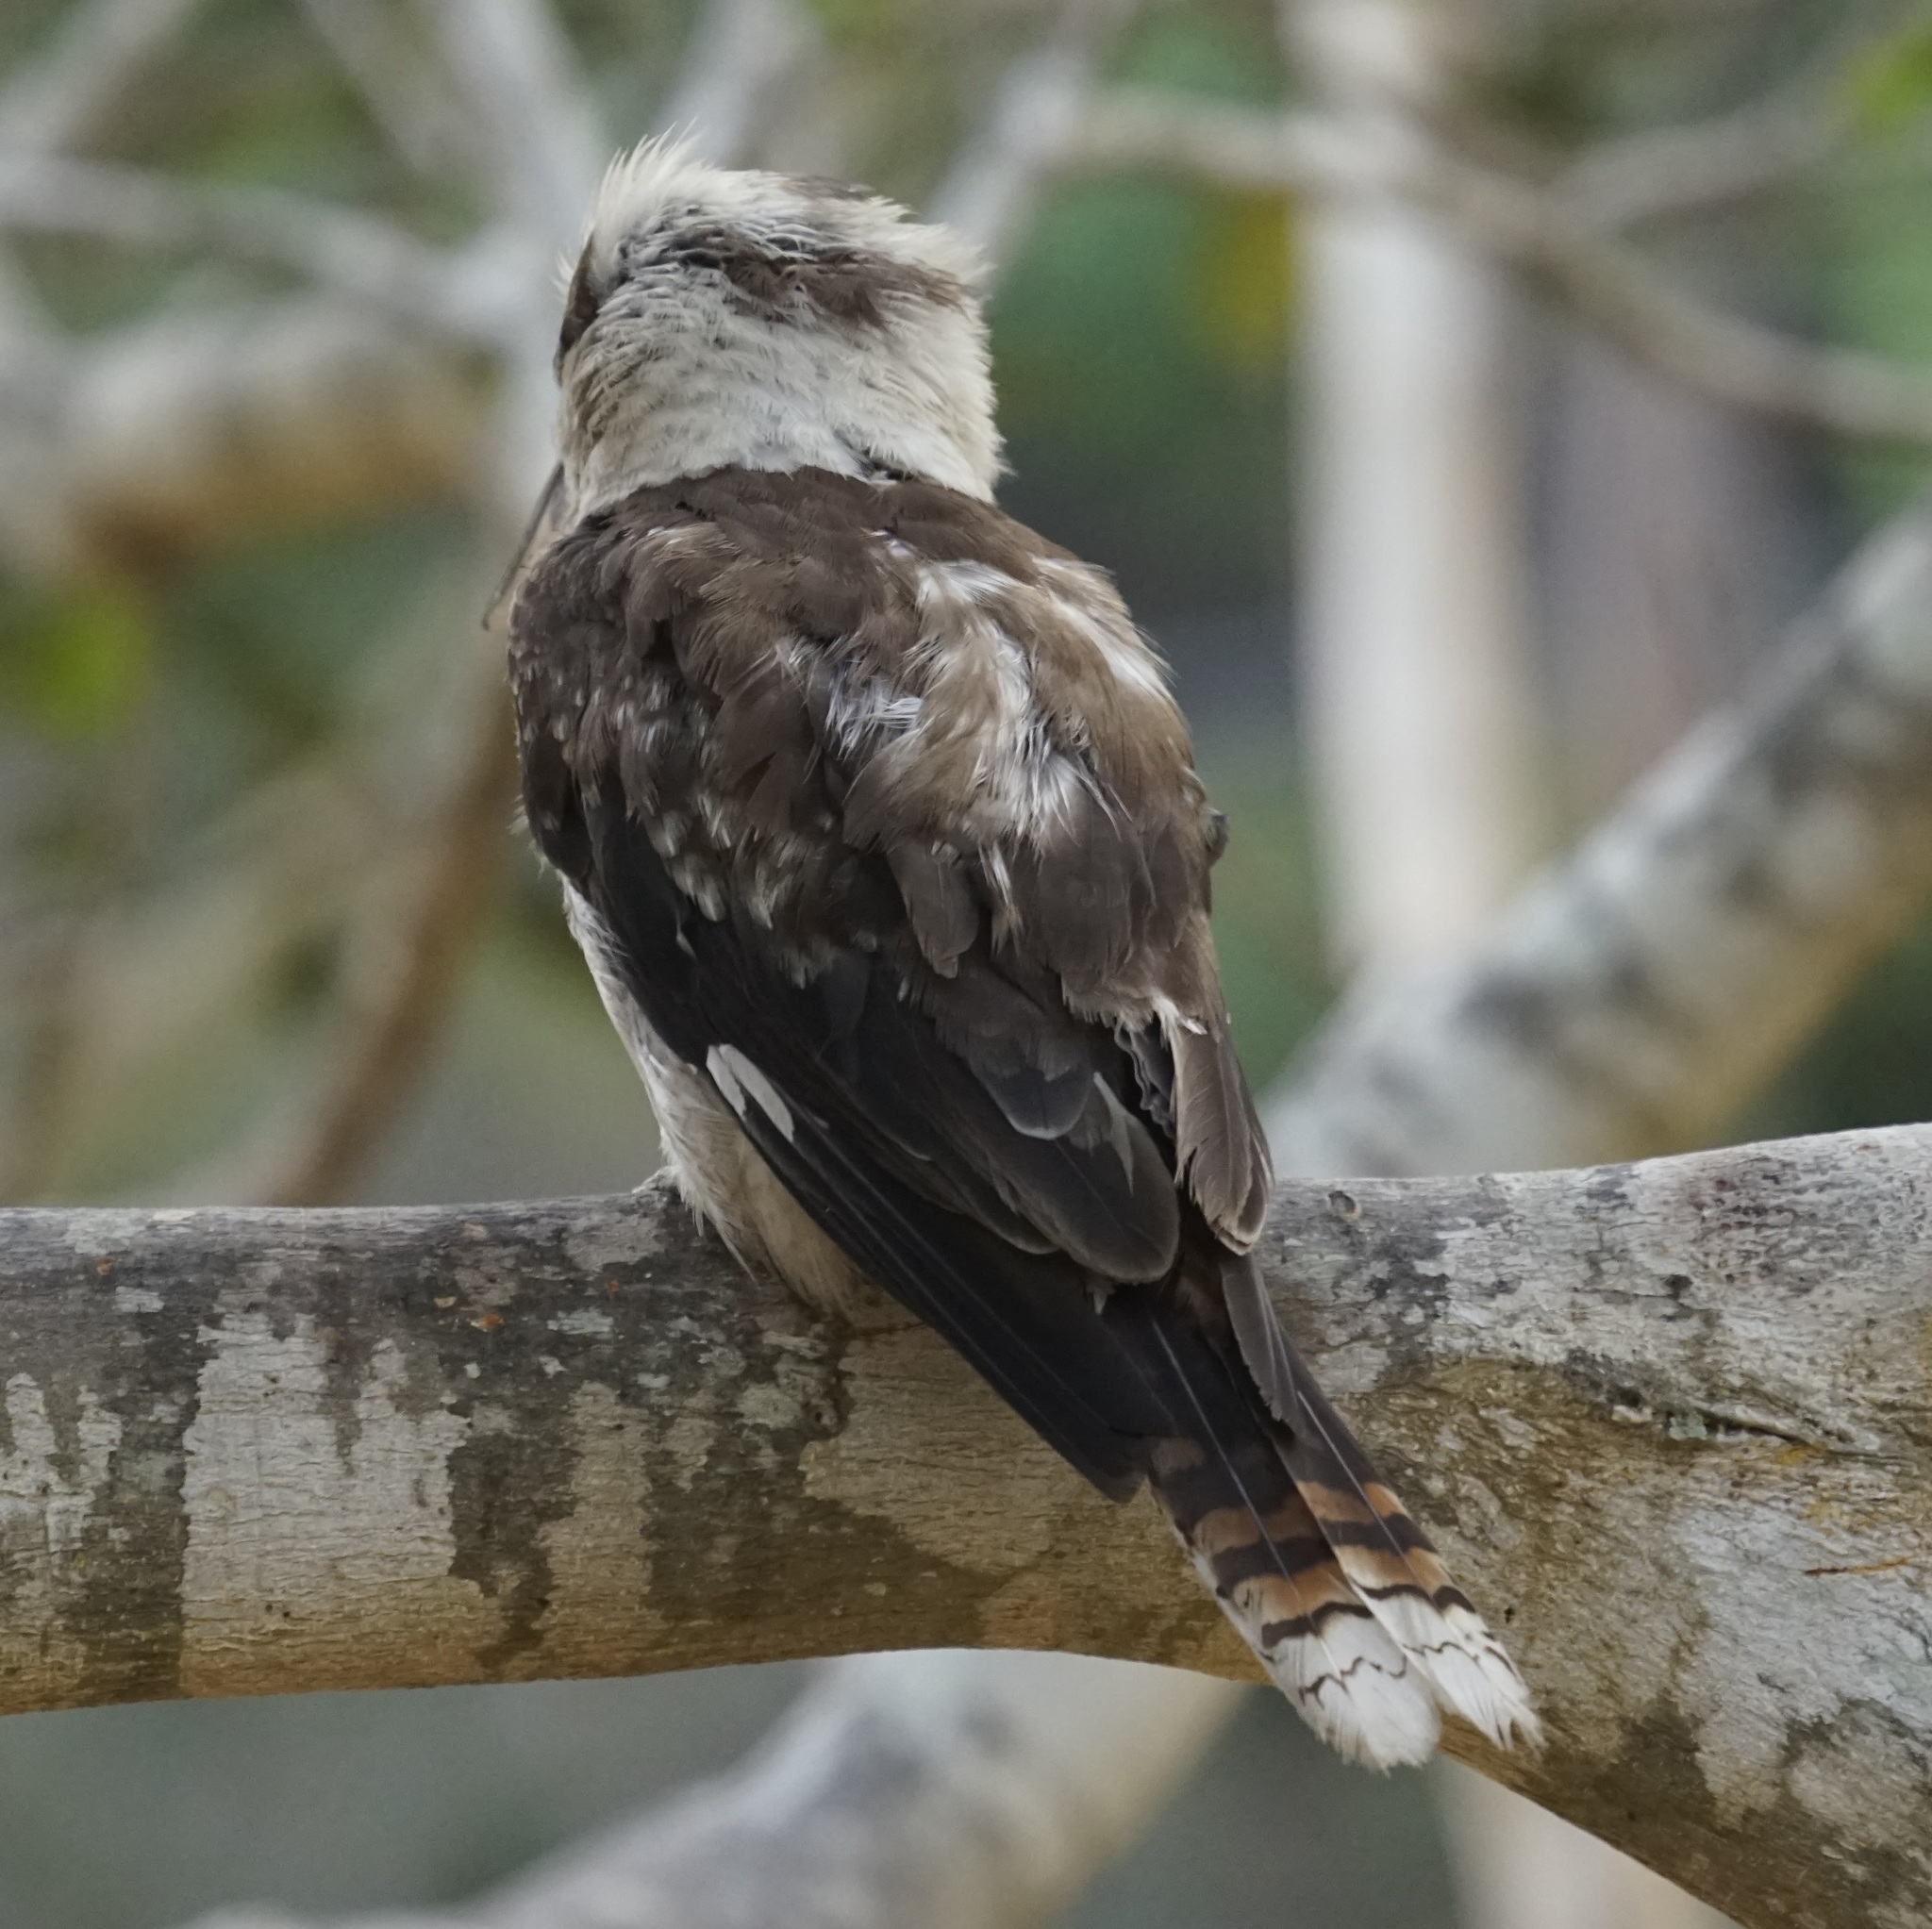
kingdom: Animalia
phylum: Chordata
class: Aves
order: Coraciiformes
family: Alcedinidae
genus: Dacelo
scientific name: Dacelo novaeguineae
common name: Laughing kookaburra
